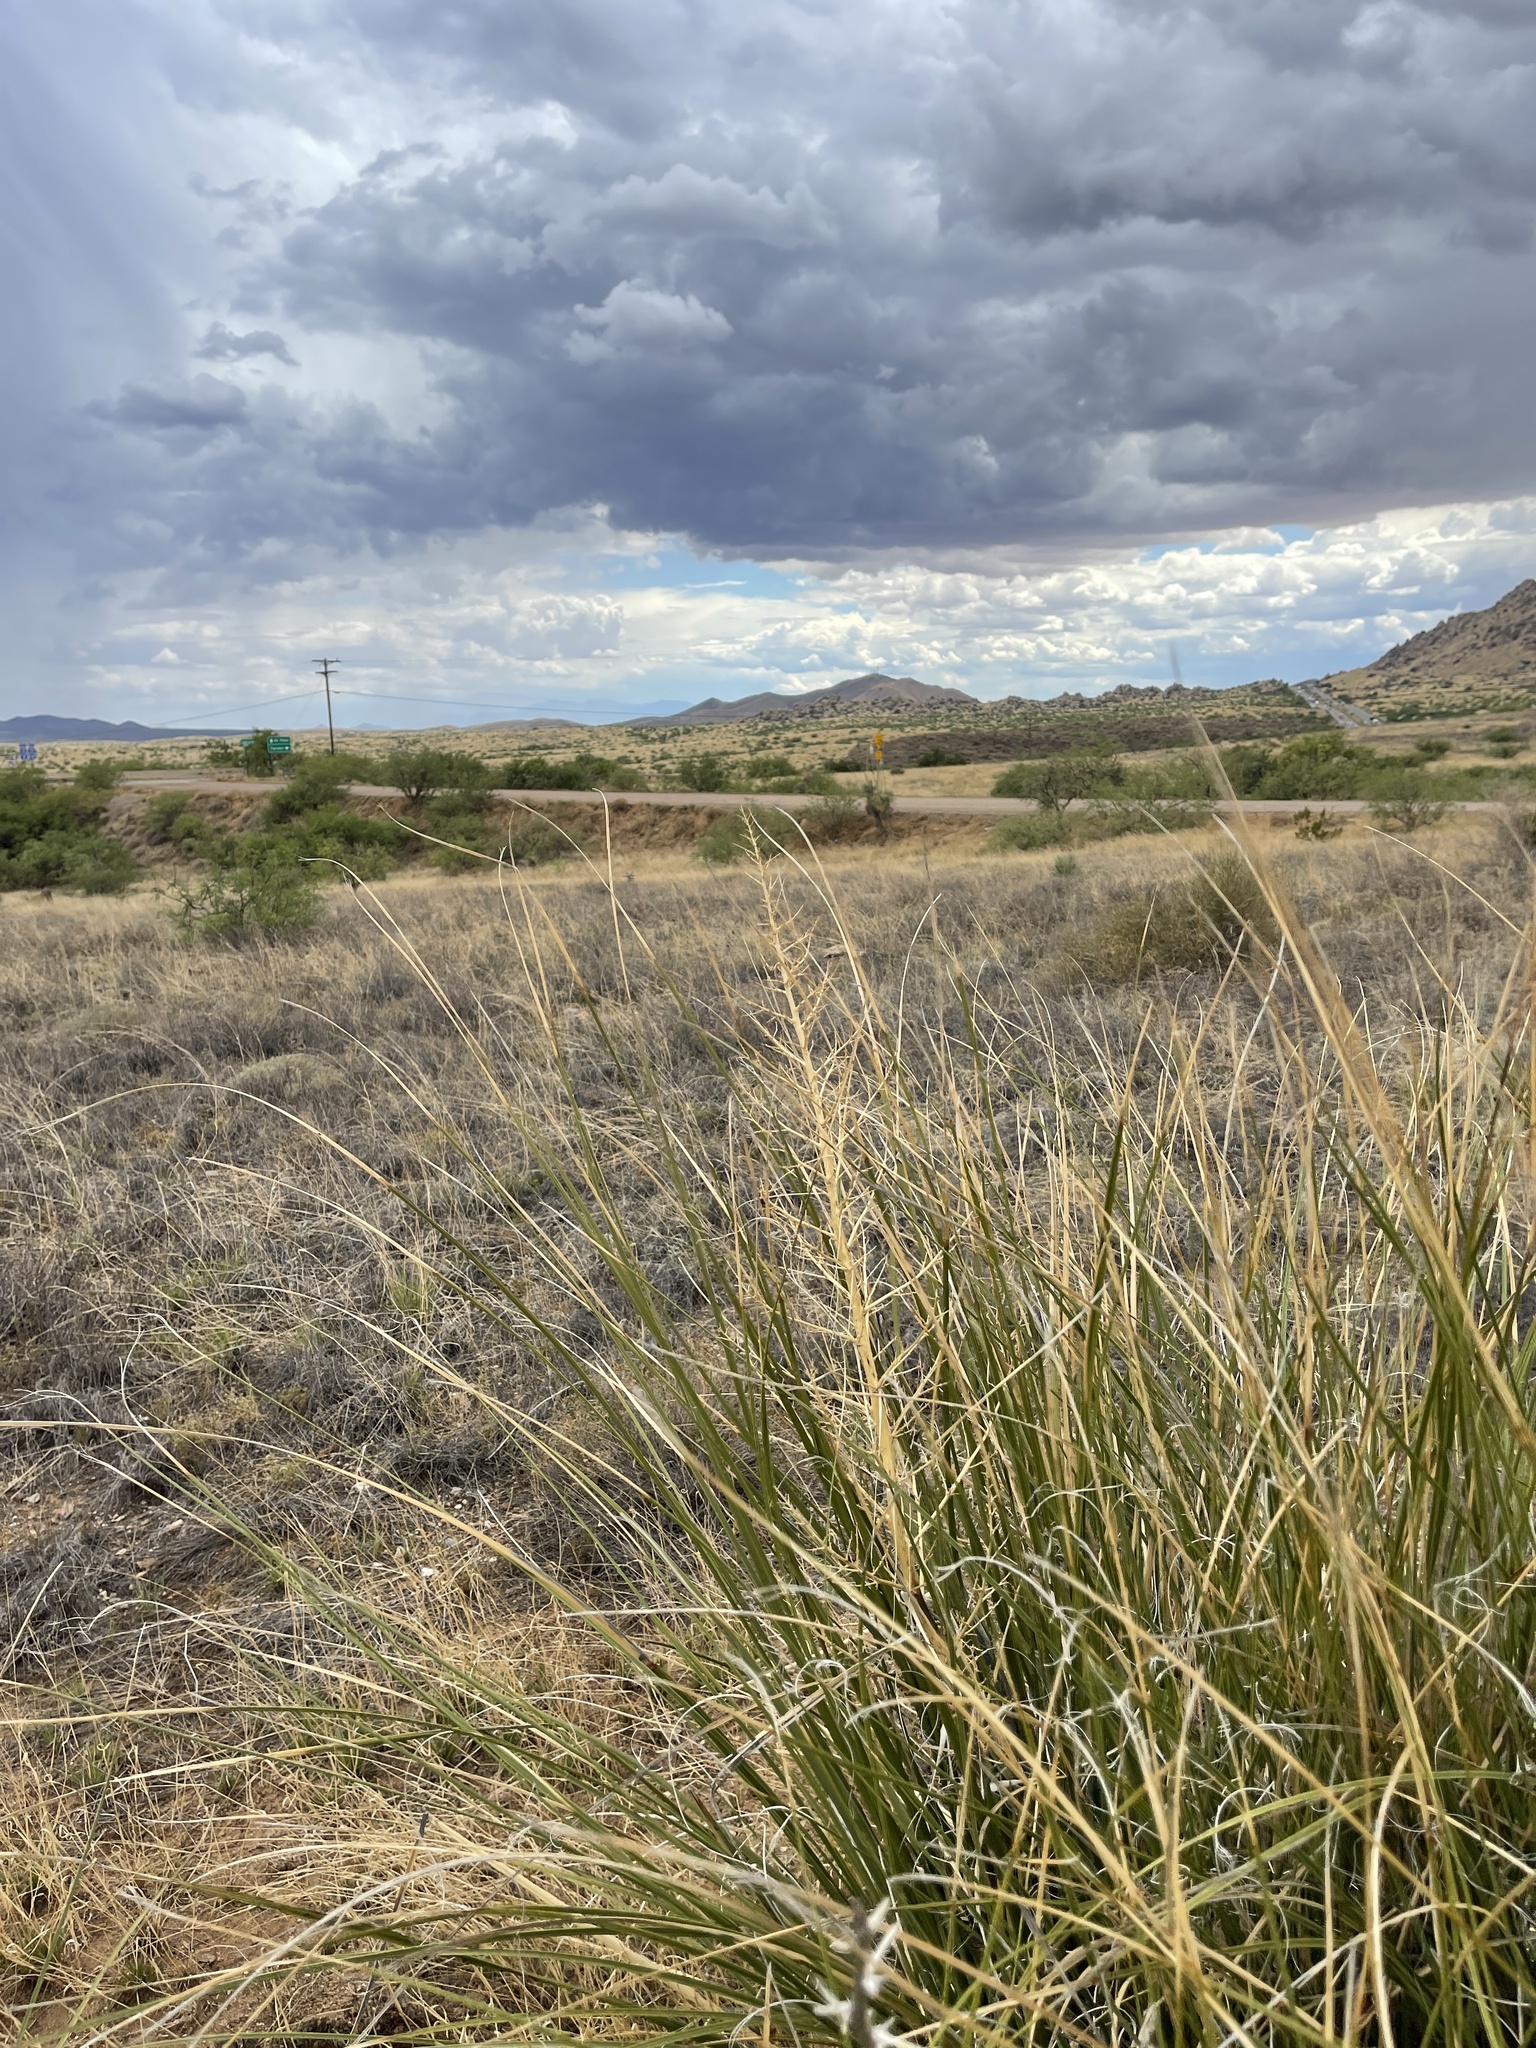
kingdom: Plantae
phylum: Tracheophyta
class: Liliopsida
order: Asparagales
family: Asparagaceae
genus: Nolina
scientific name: Nolina microcarpa
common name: Bear-grass
